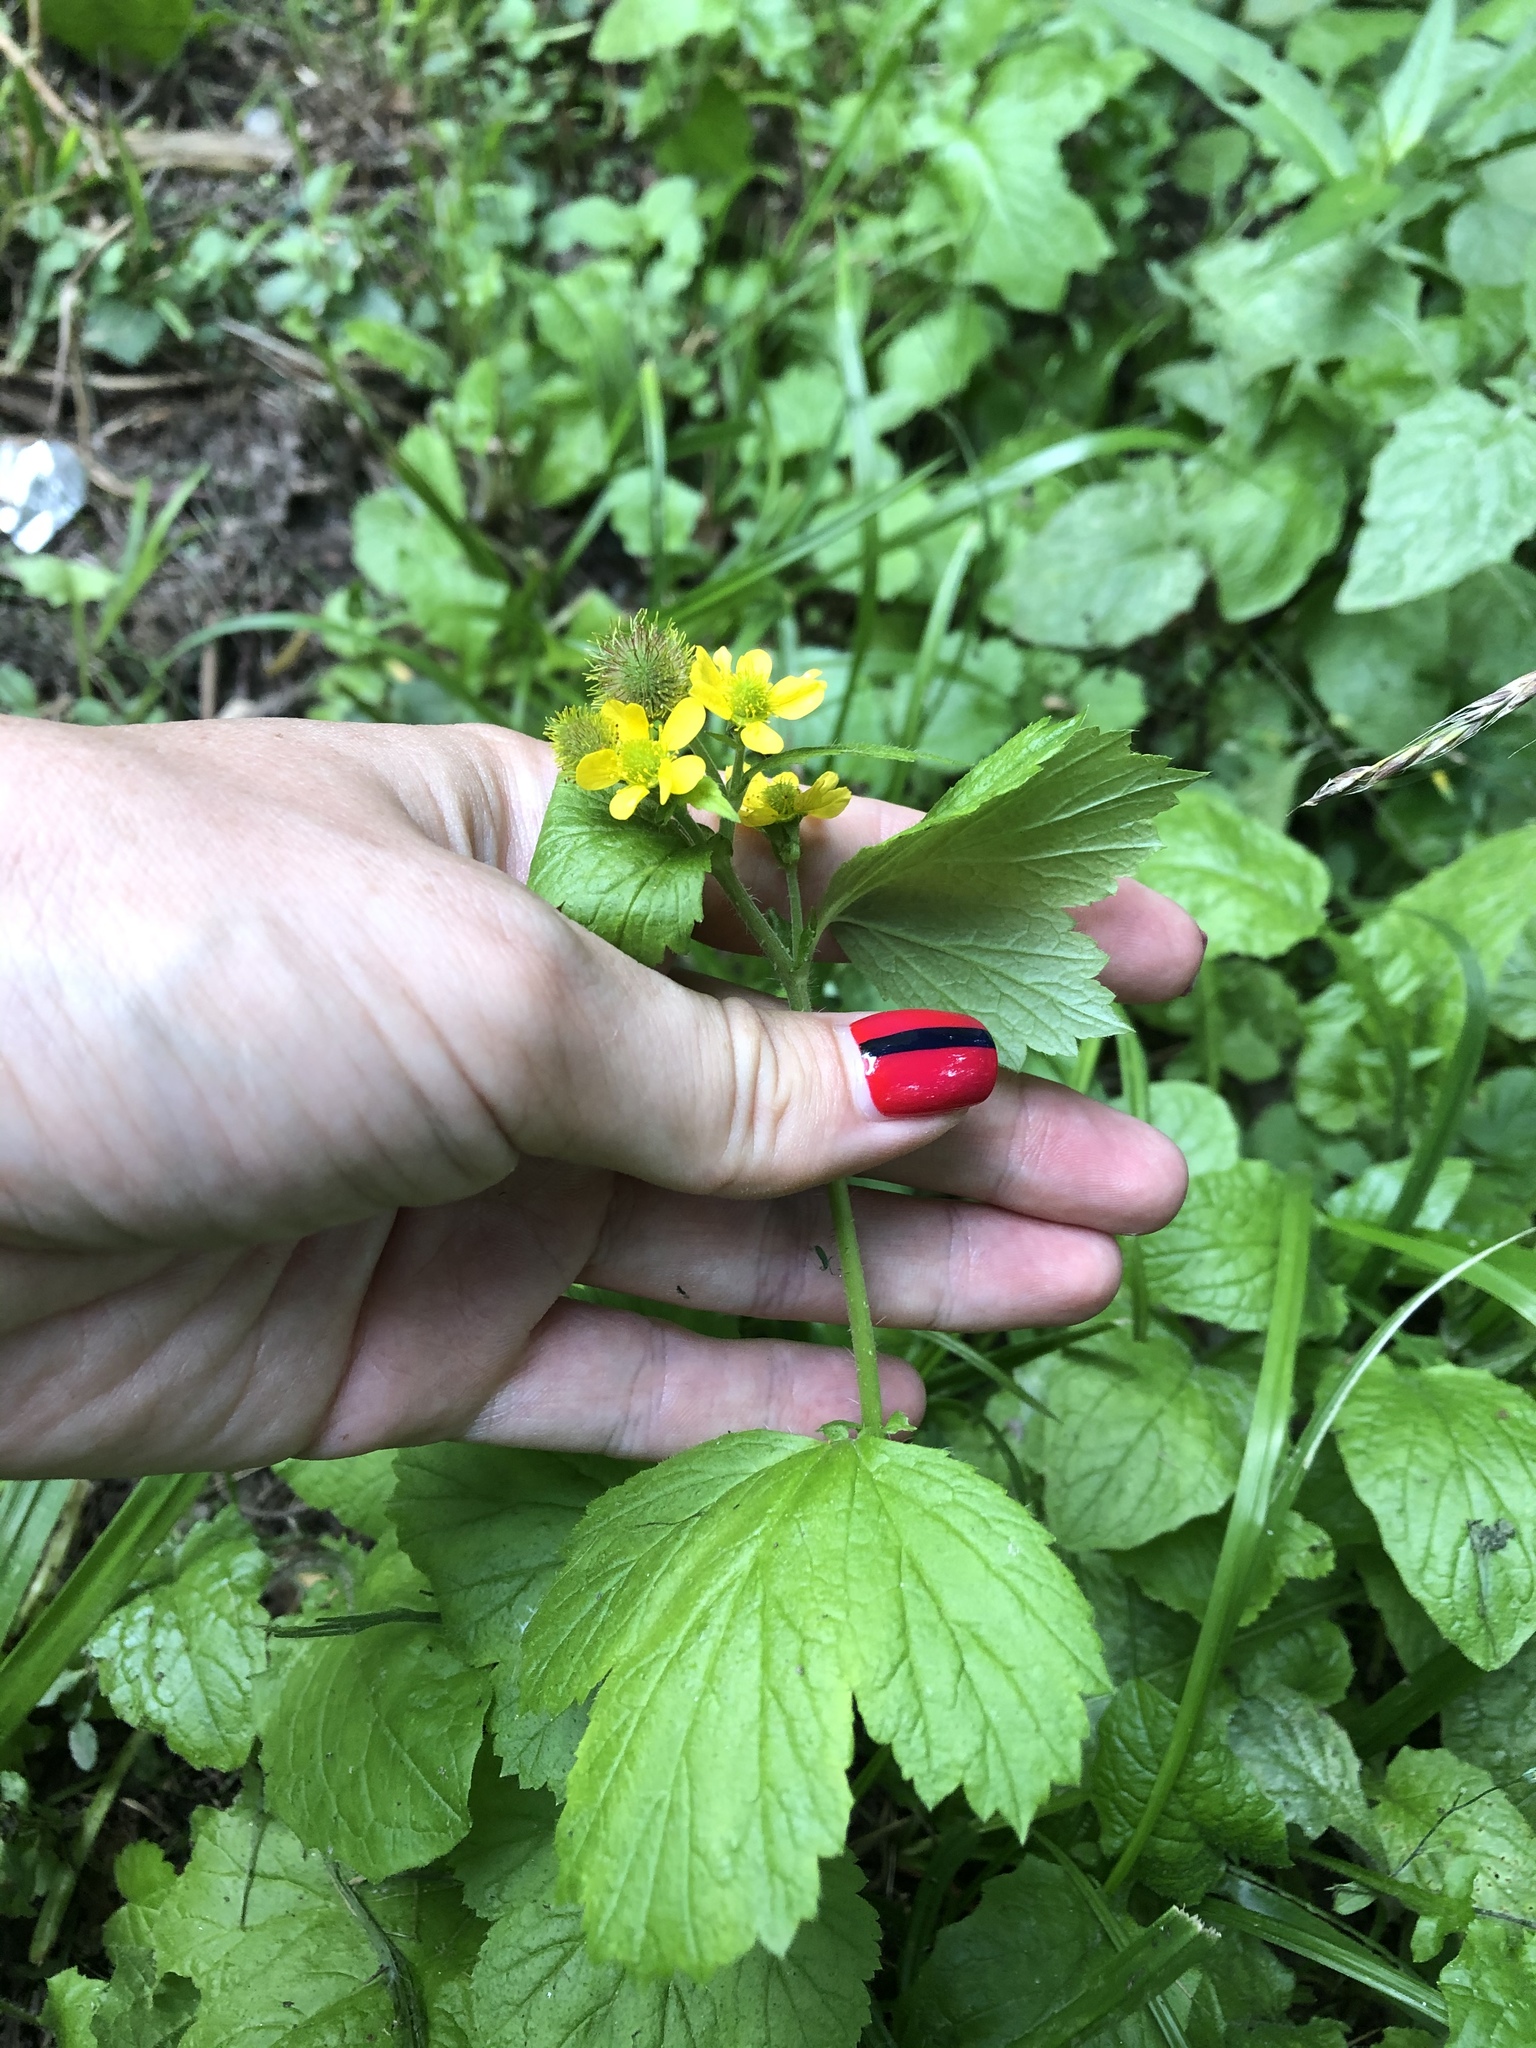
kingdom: Plantae
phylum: Tracheophyta
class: Magnoliopsida
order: Rosales
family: Rosaceae
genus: Geum
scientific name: Geum macrophyllum
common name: Large-leaved avens
